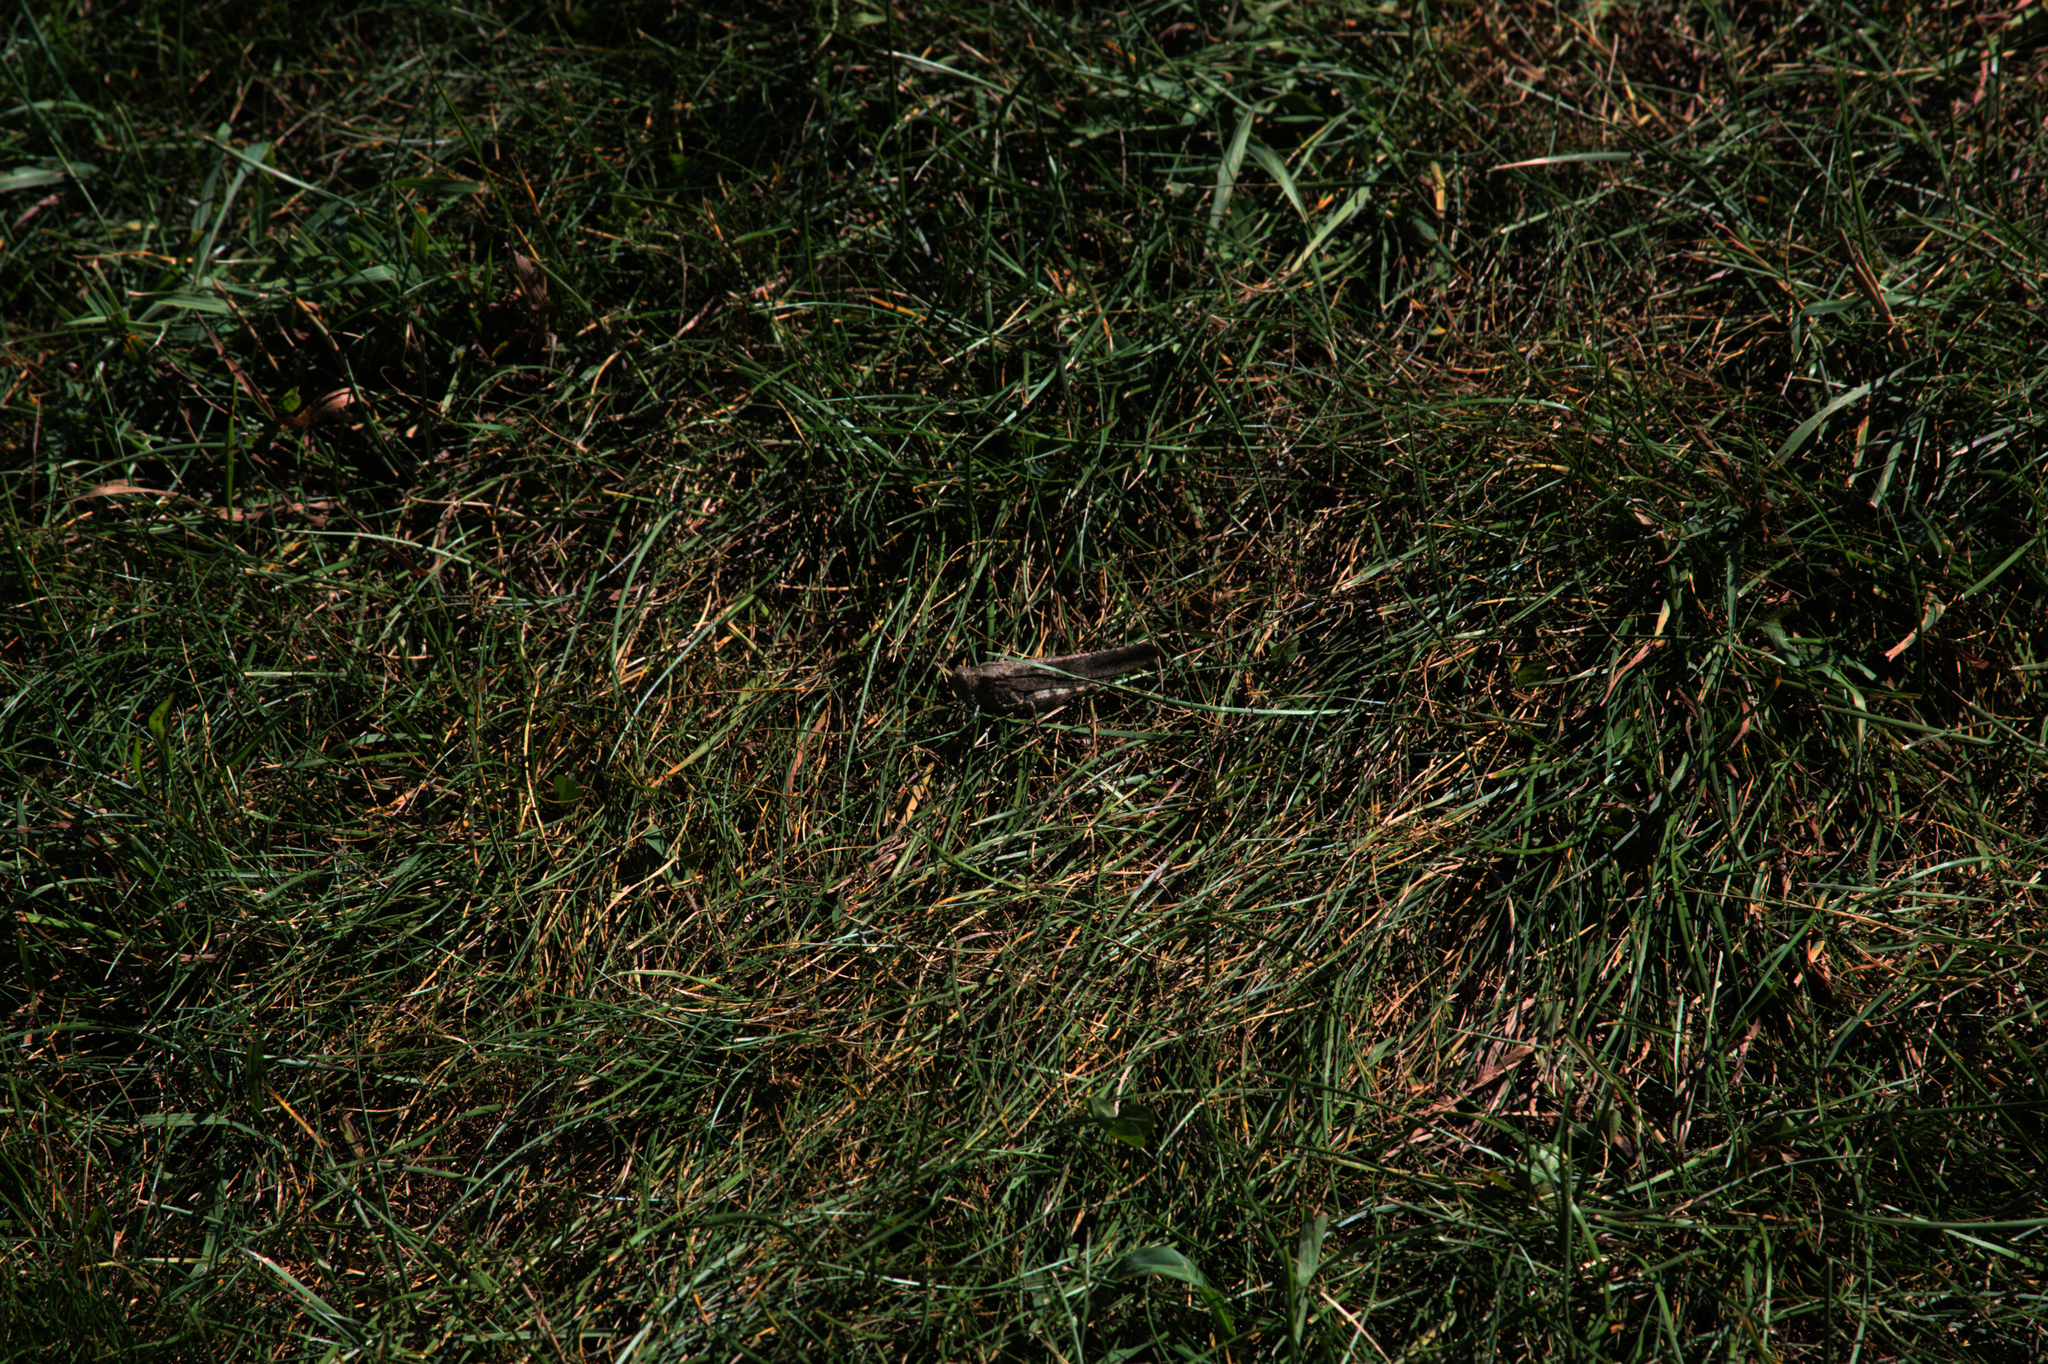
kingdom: Animalia
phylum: Arthropoda
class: Insecta
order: Orthoptera
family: Acrididae
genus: Dissosteira
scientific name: Dissosteira carolina
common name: Carolina grasshopper
